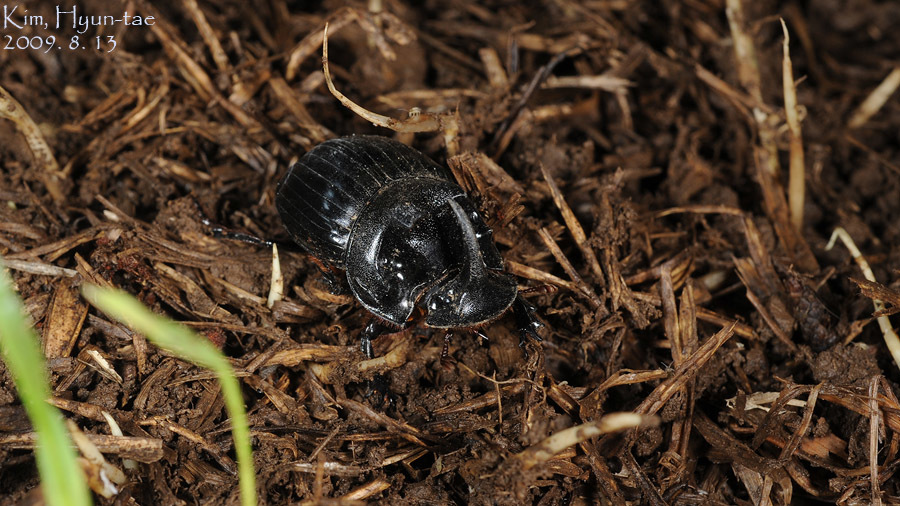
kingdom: Animalia
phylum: Arthropoda
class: Insecta
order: Coleoptera
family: Scarabaeidae
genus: Copris
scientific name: Copris ochus
